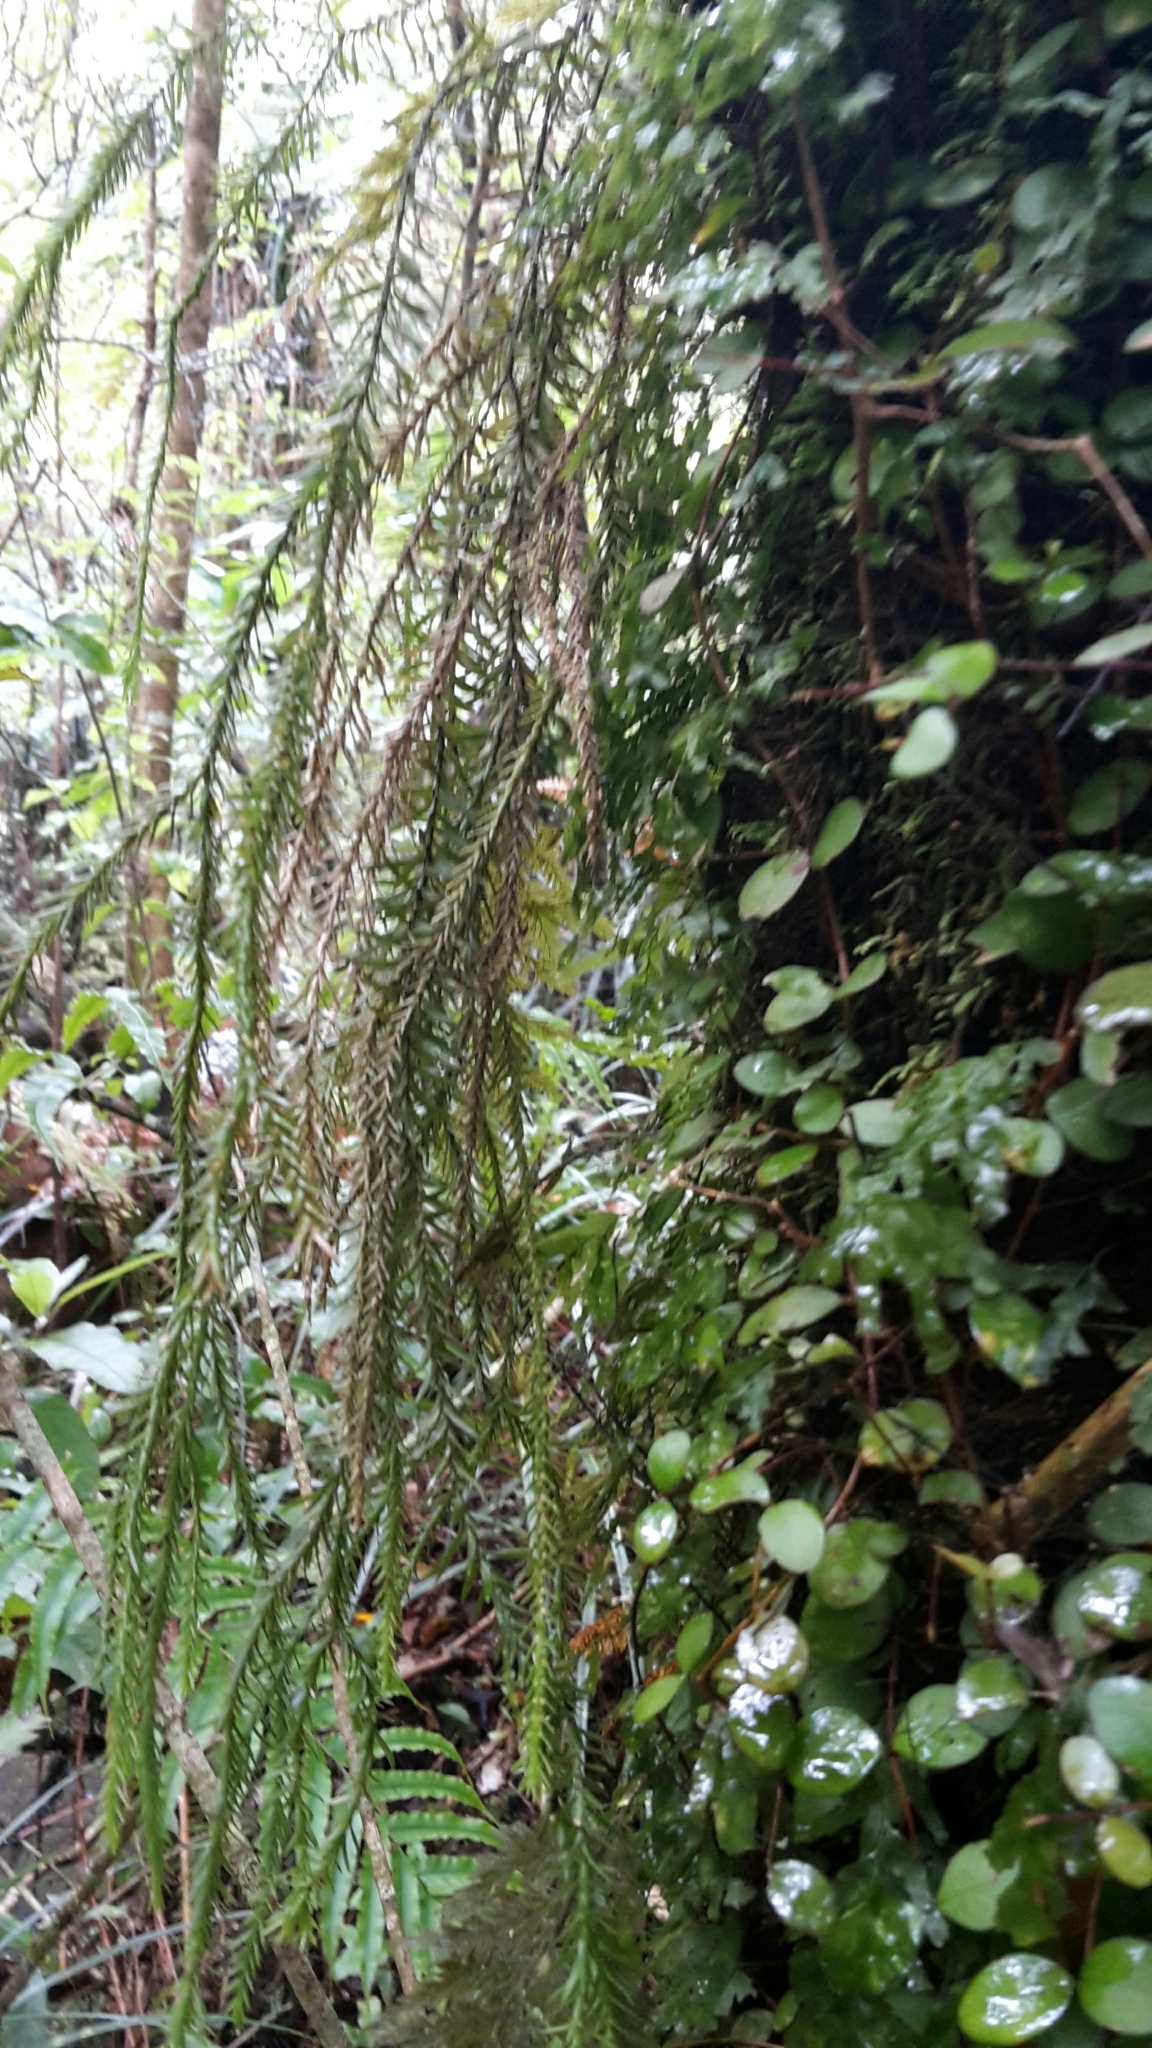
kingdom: Plantae
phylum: Tracheophyta
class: Lycopodiopsida
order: Lycopodiales
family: Lycopodiaceae
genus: Phlegmariurus
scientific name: Phlegmariurus varius
